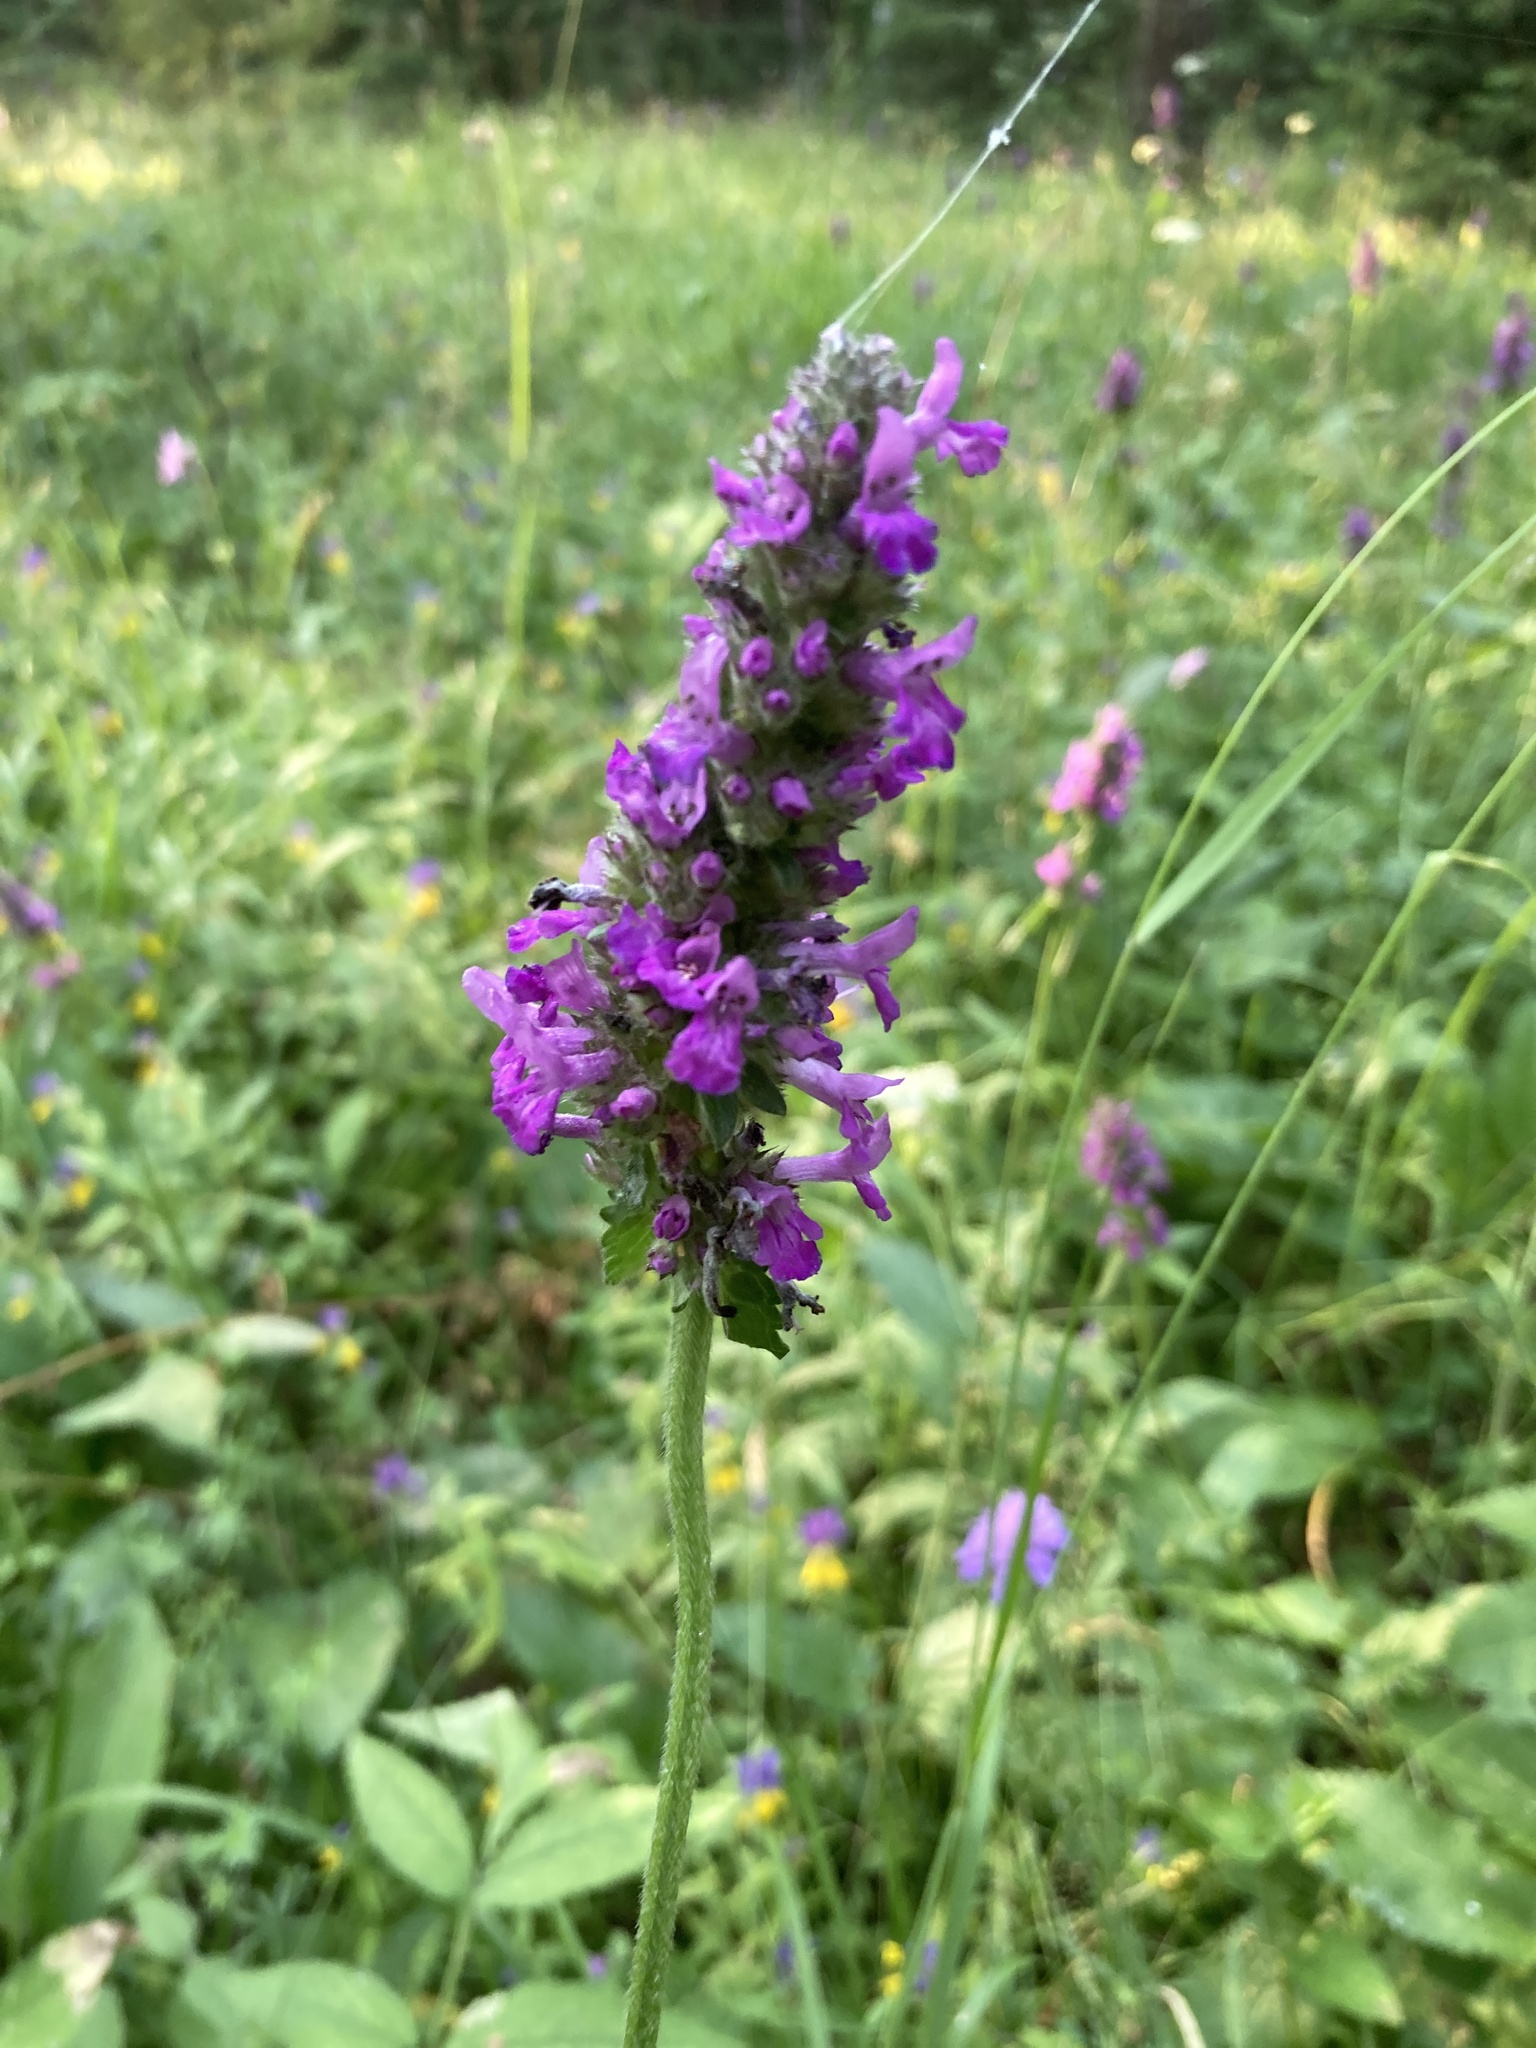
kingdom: Plantae
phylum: Tracheophyta
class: Magnoliopsida
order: Lamiales
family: Lamiaceae
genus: Betonica
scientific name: Betonica officinalis
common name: Bishop's-wort
